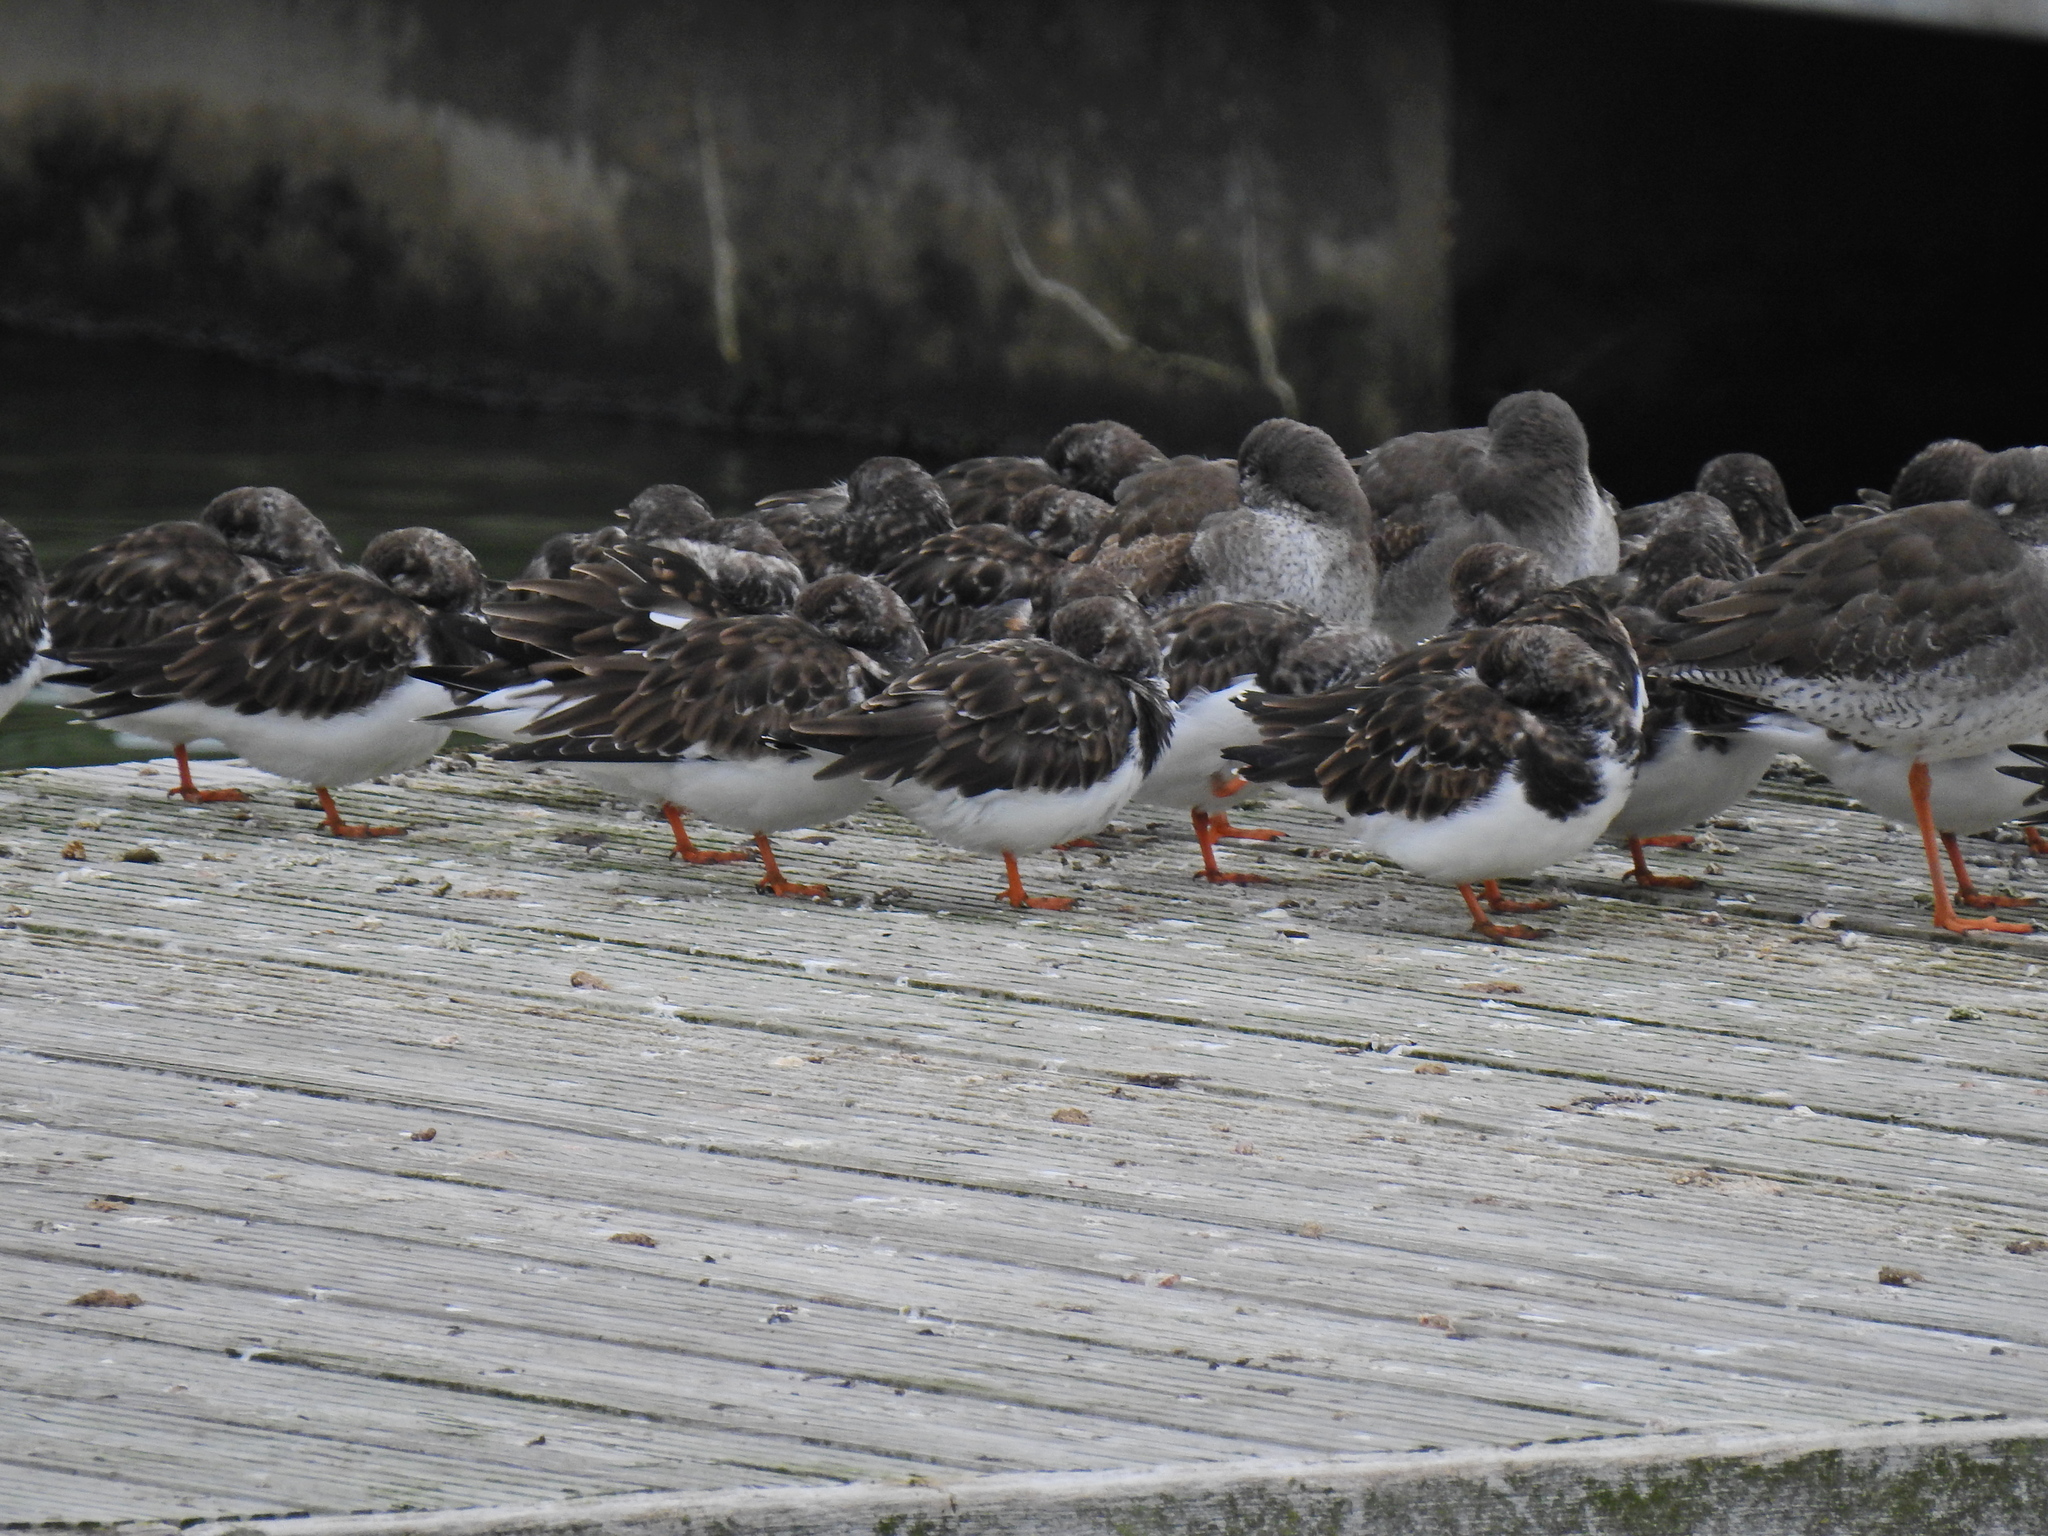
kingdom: Animalia
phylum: Chordata
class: Aves
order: Charadriiformes
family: Scolopacidae
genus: Arenaria
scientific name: Arenaria interpres
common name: Ruddy turnstone
